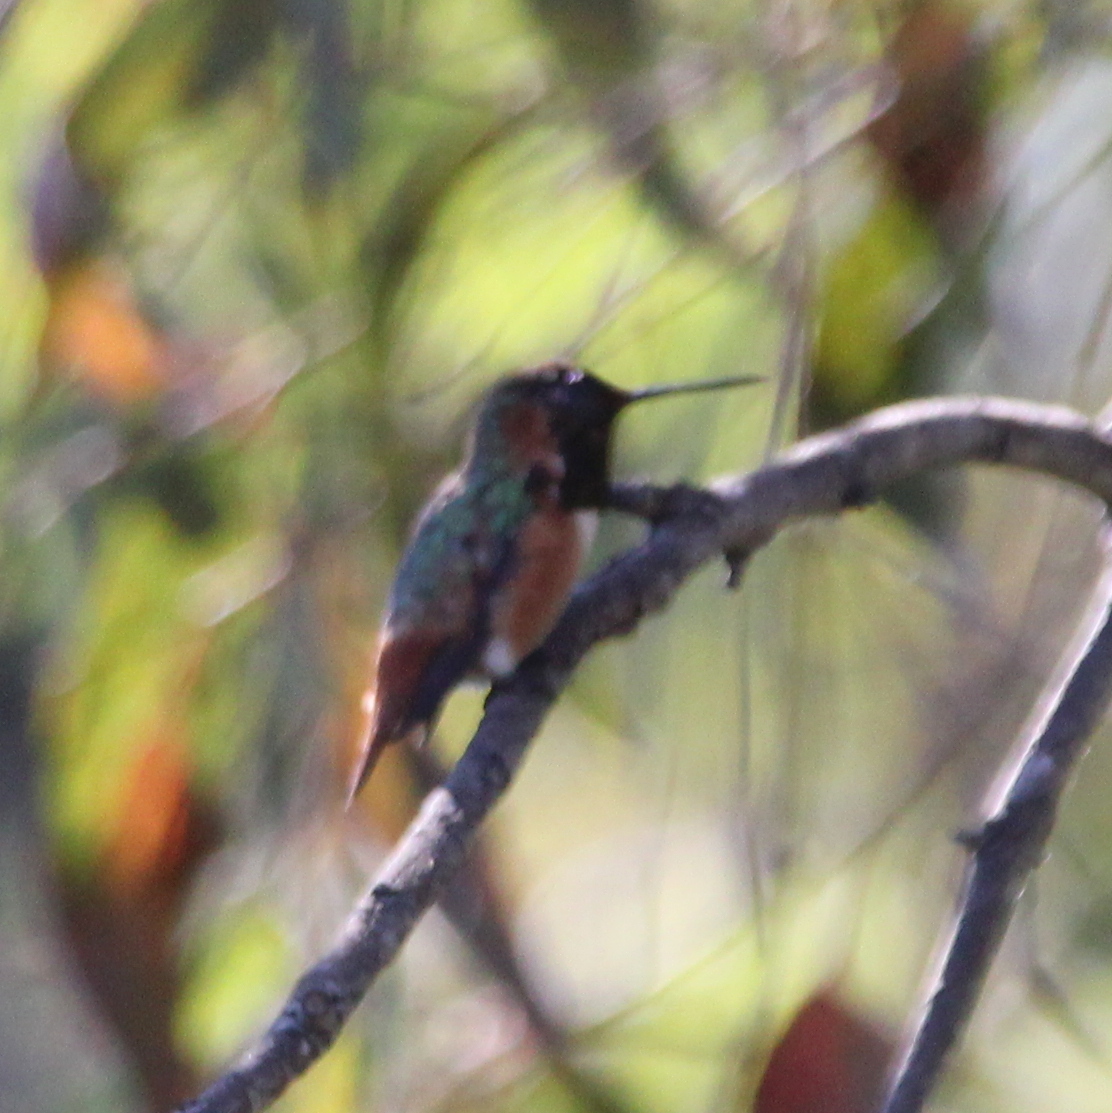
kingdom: Animalia
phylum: Chordata
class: Aves
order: Apodiformes
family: Trochilidae
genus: Selasphorus
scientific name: Selasphorus sasin
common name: Allen's hummingbird
